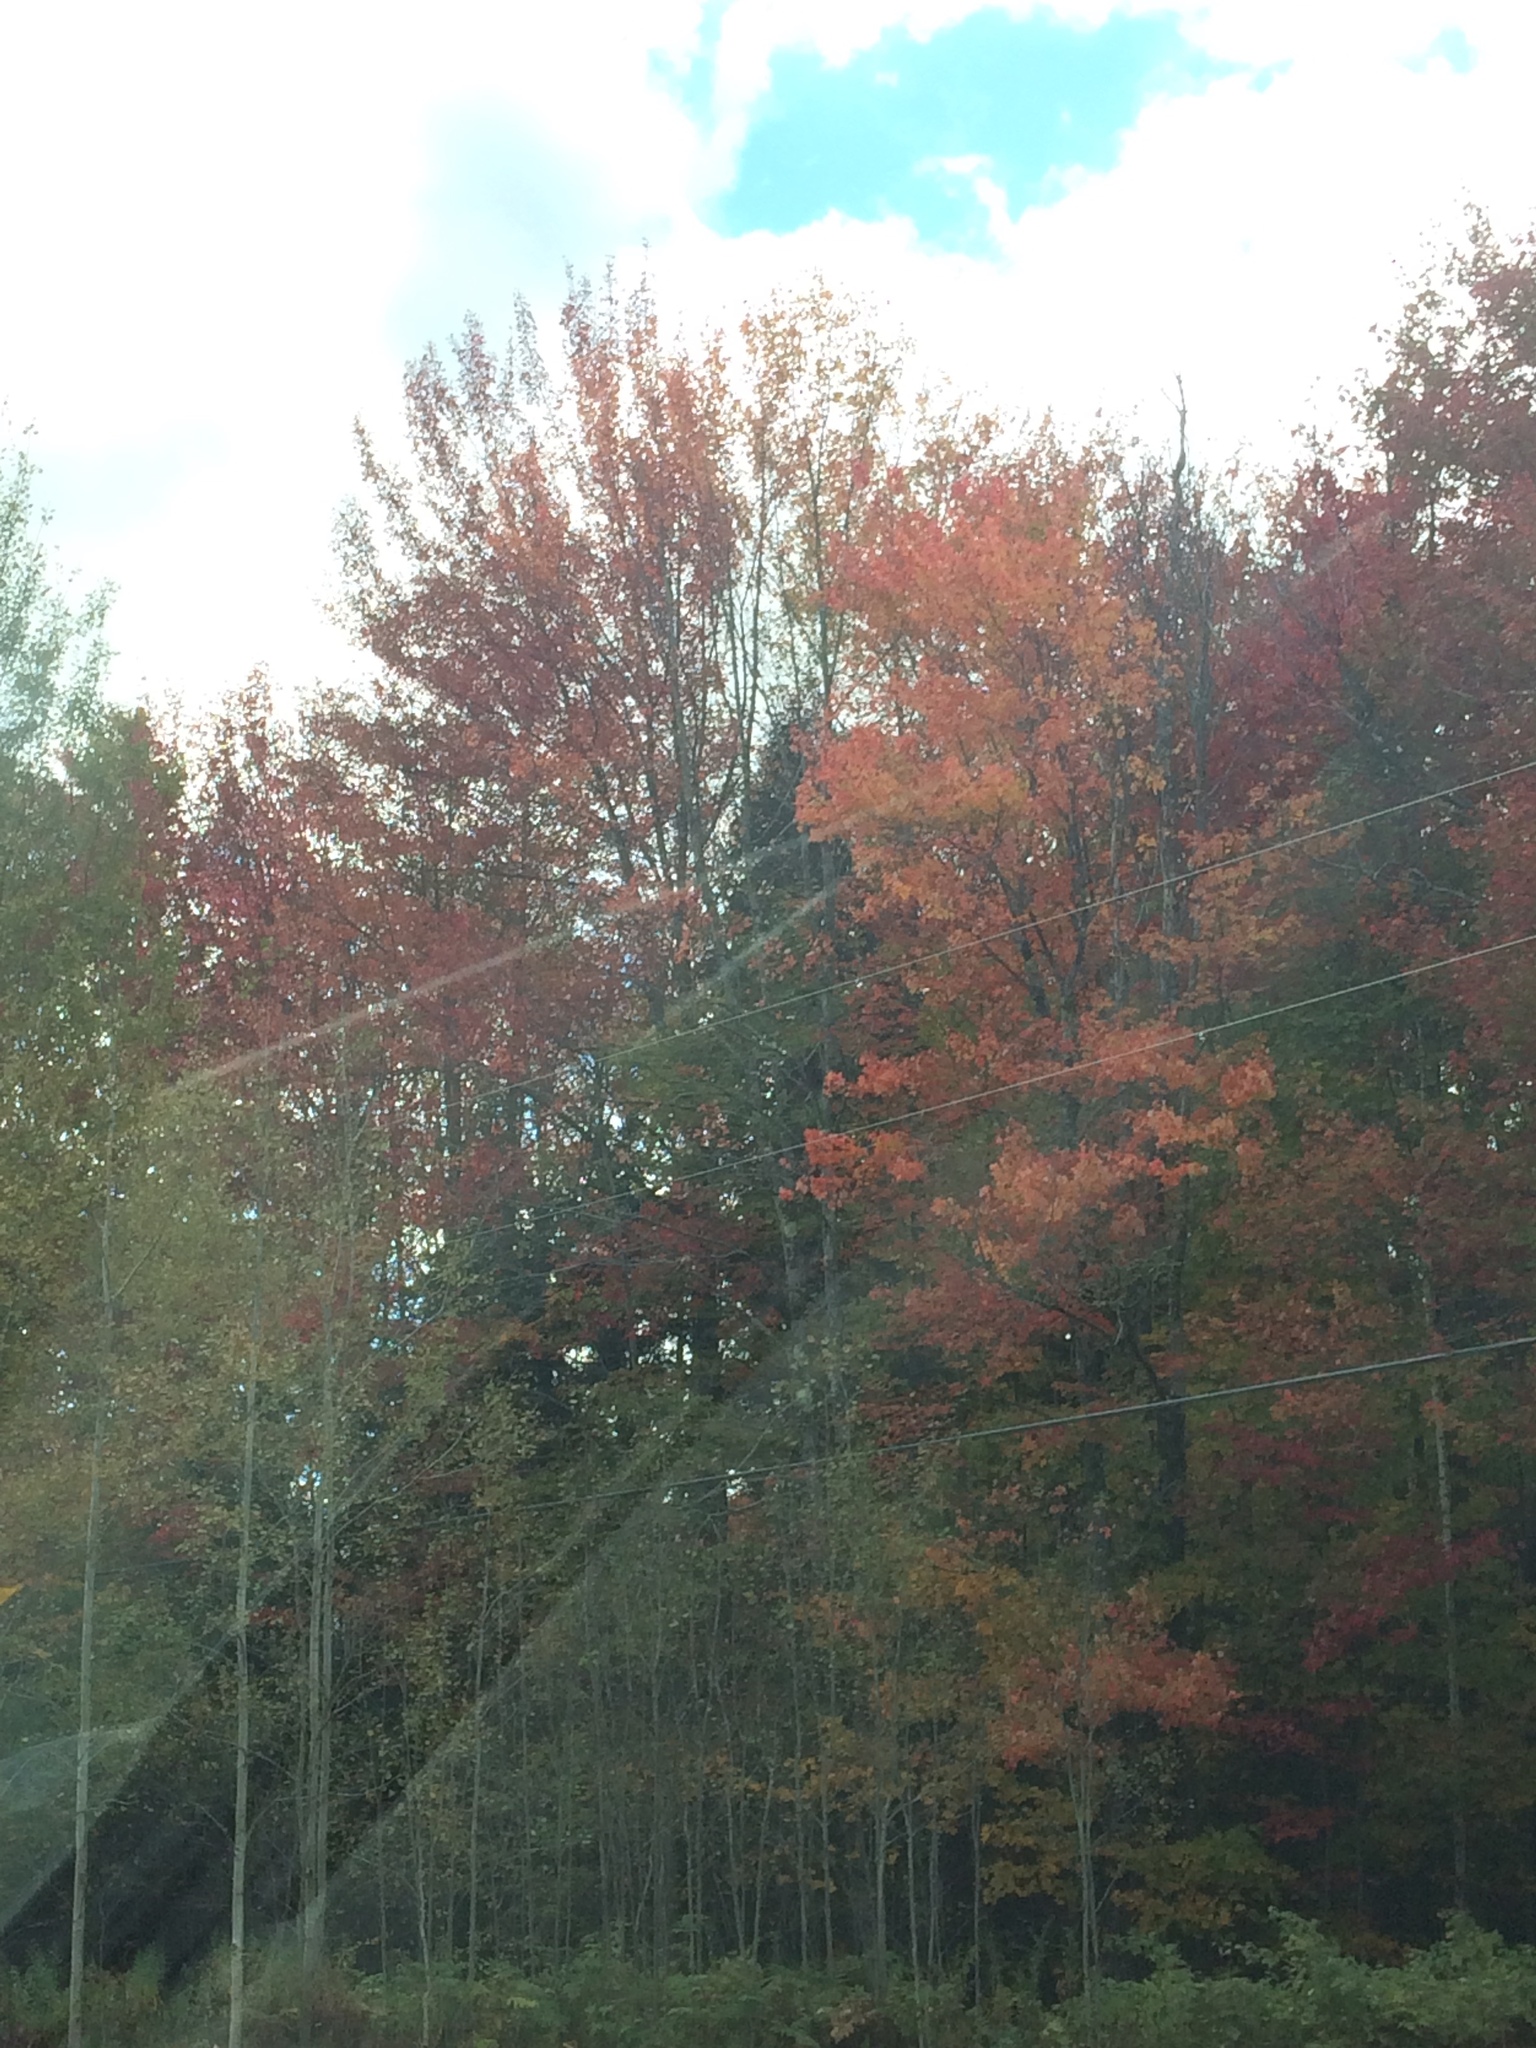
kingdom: Plantae
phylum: Tracheophyta
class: Magnoliopsida
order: Sapindales
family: Sapindaceae
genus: Acer
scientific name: Acer rubrum
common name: Red maple
